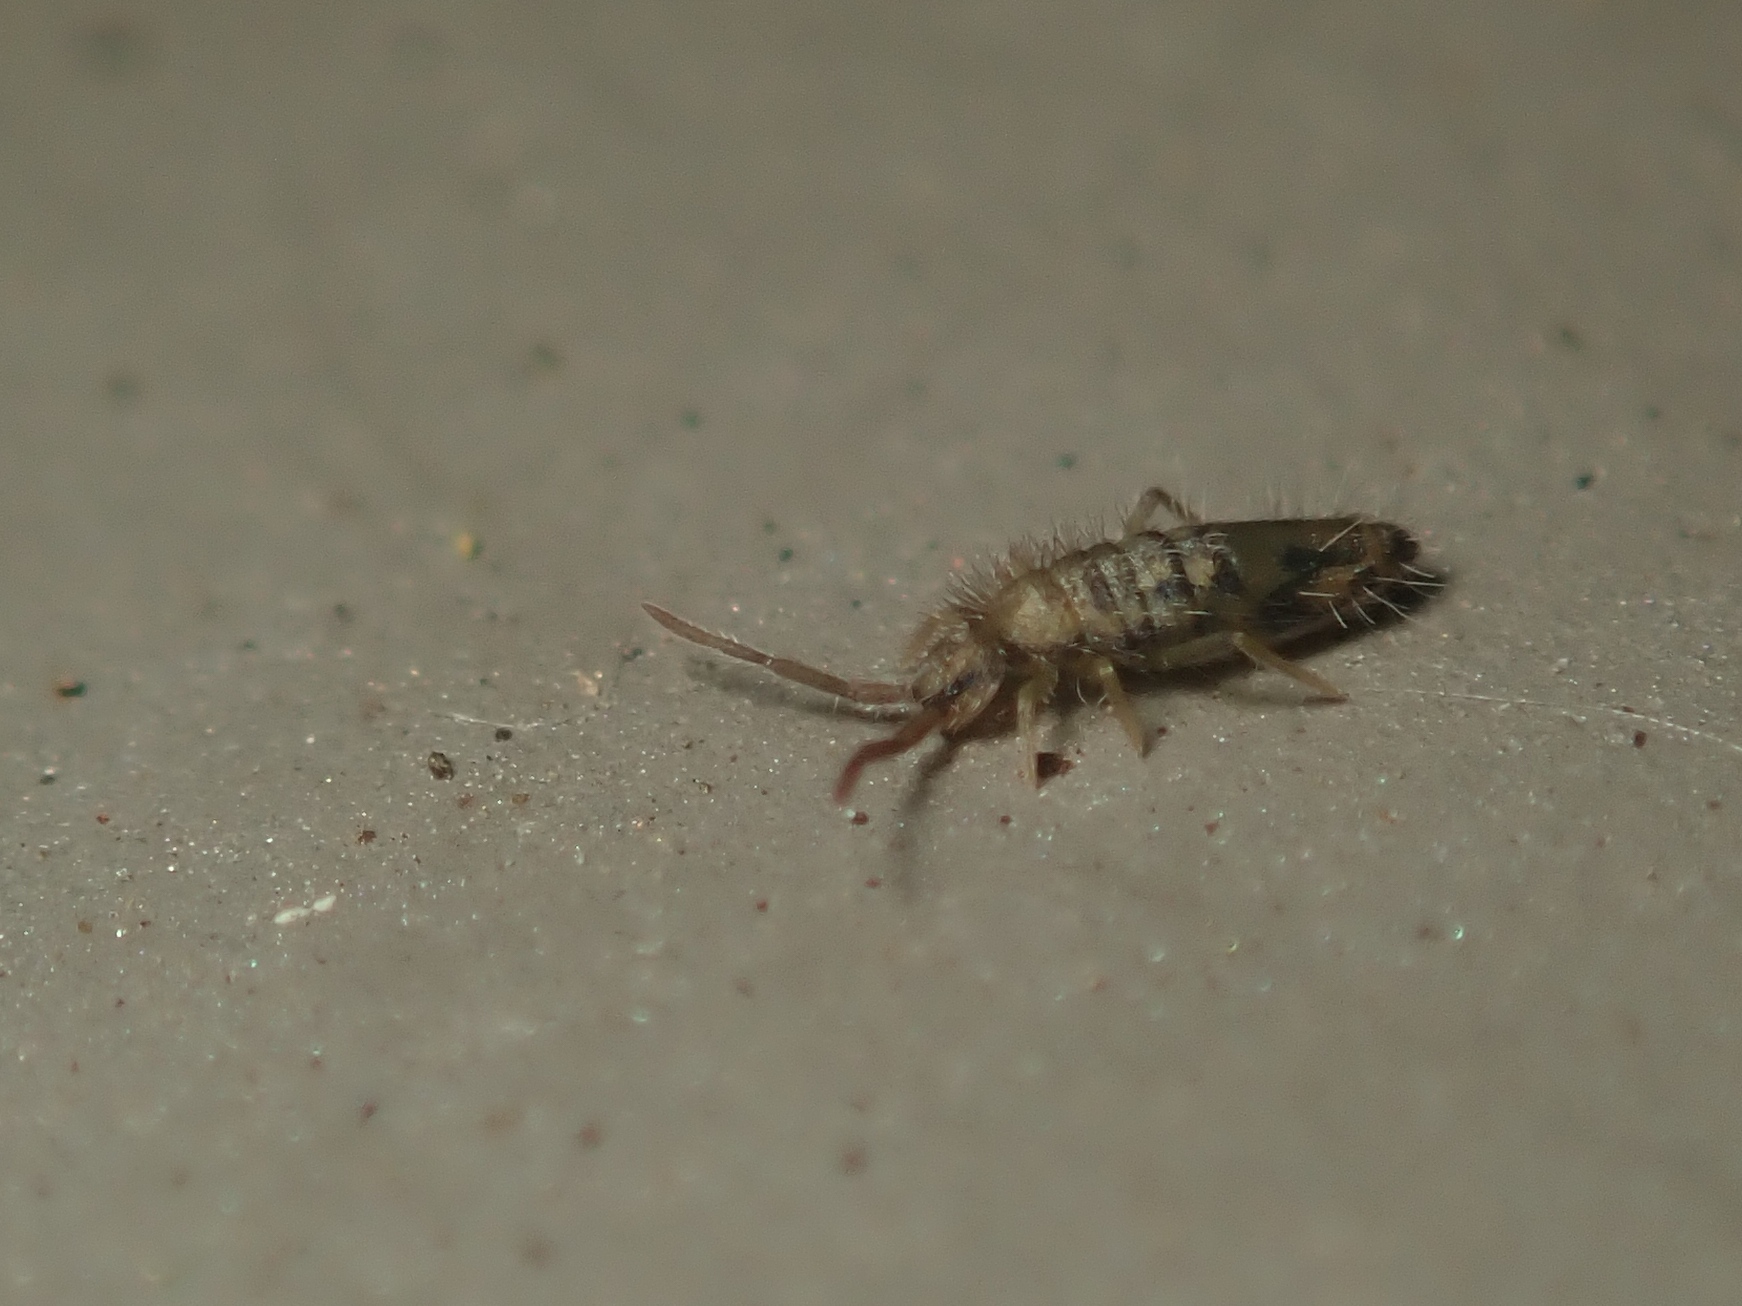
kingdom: Animalia
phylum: Arthropoda
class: Collembola
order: Entomobryomorpha
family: Entomobryidae
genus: Entomobrya
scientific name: Entomobrya nivalis
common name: Cosmopolitan springtail
